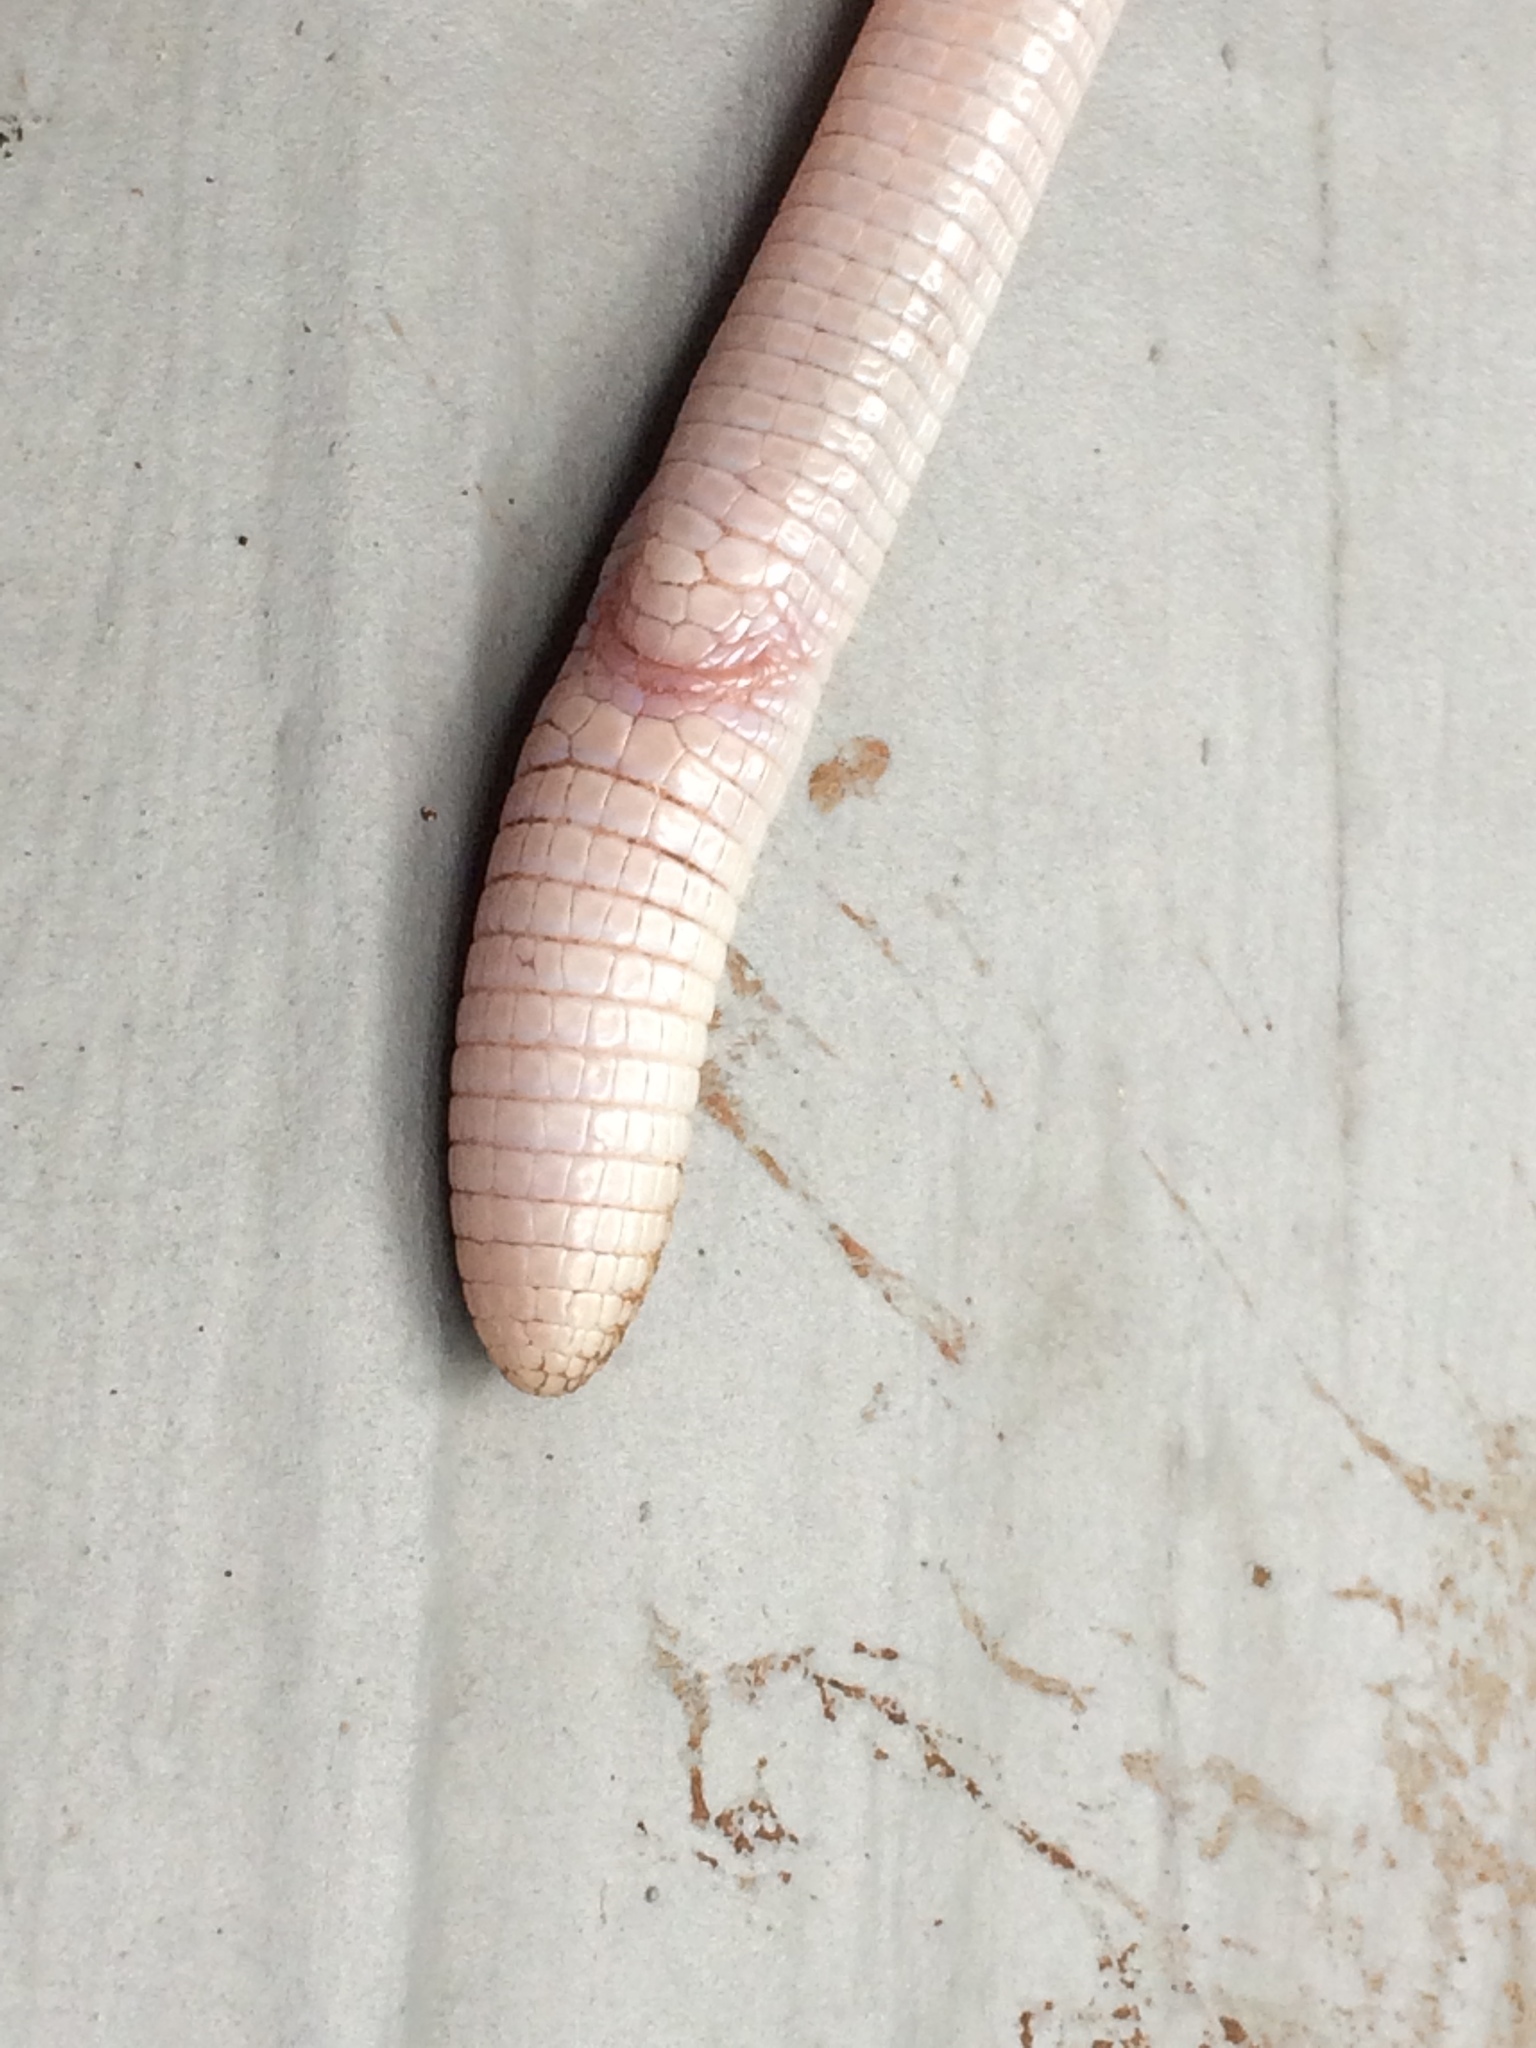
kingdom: Animalia
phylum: Chordata
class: Squamata
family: Rhineuridae
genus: Rhineura
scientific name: Rhineura floridana
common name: Florida worm lizard
